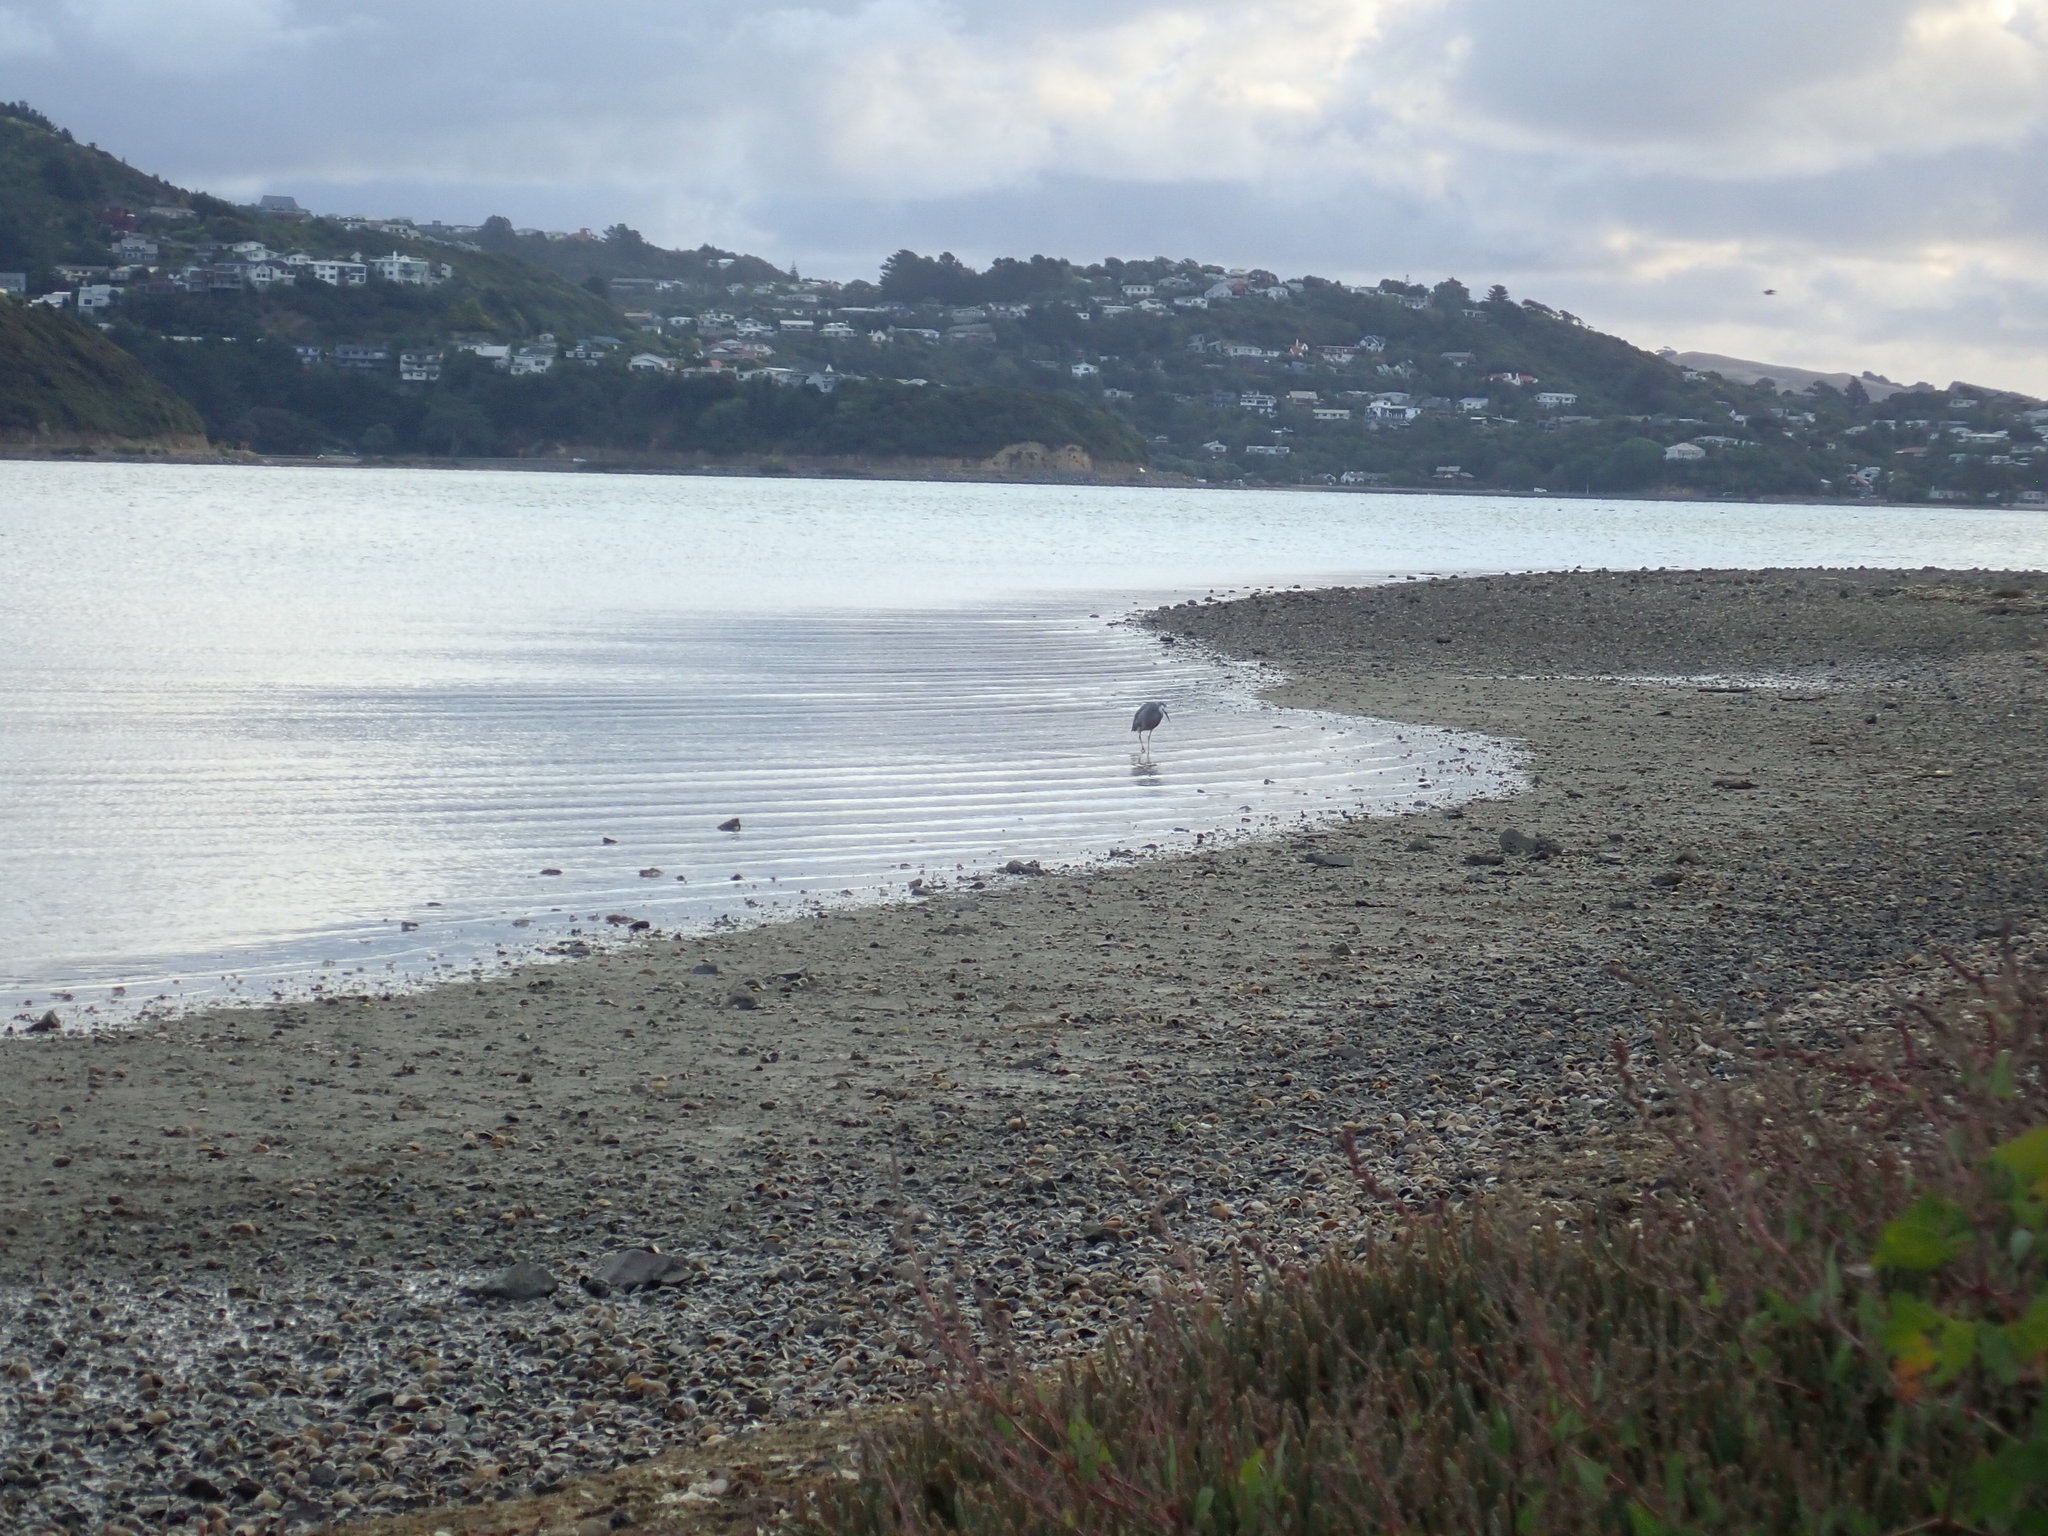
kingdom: Animalia
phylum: Chordata
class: Aves
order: Pelecaniformes
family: Ardeidae
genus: Egretta
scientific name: Egretta novaehollandiae
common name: White-faced heron
